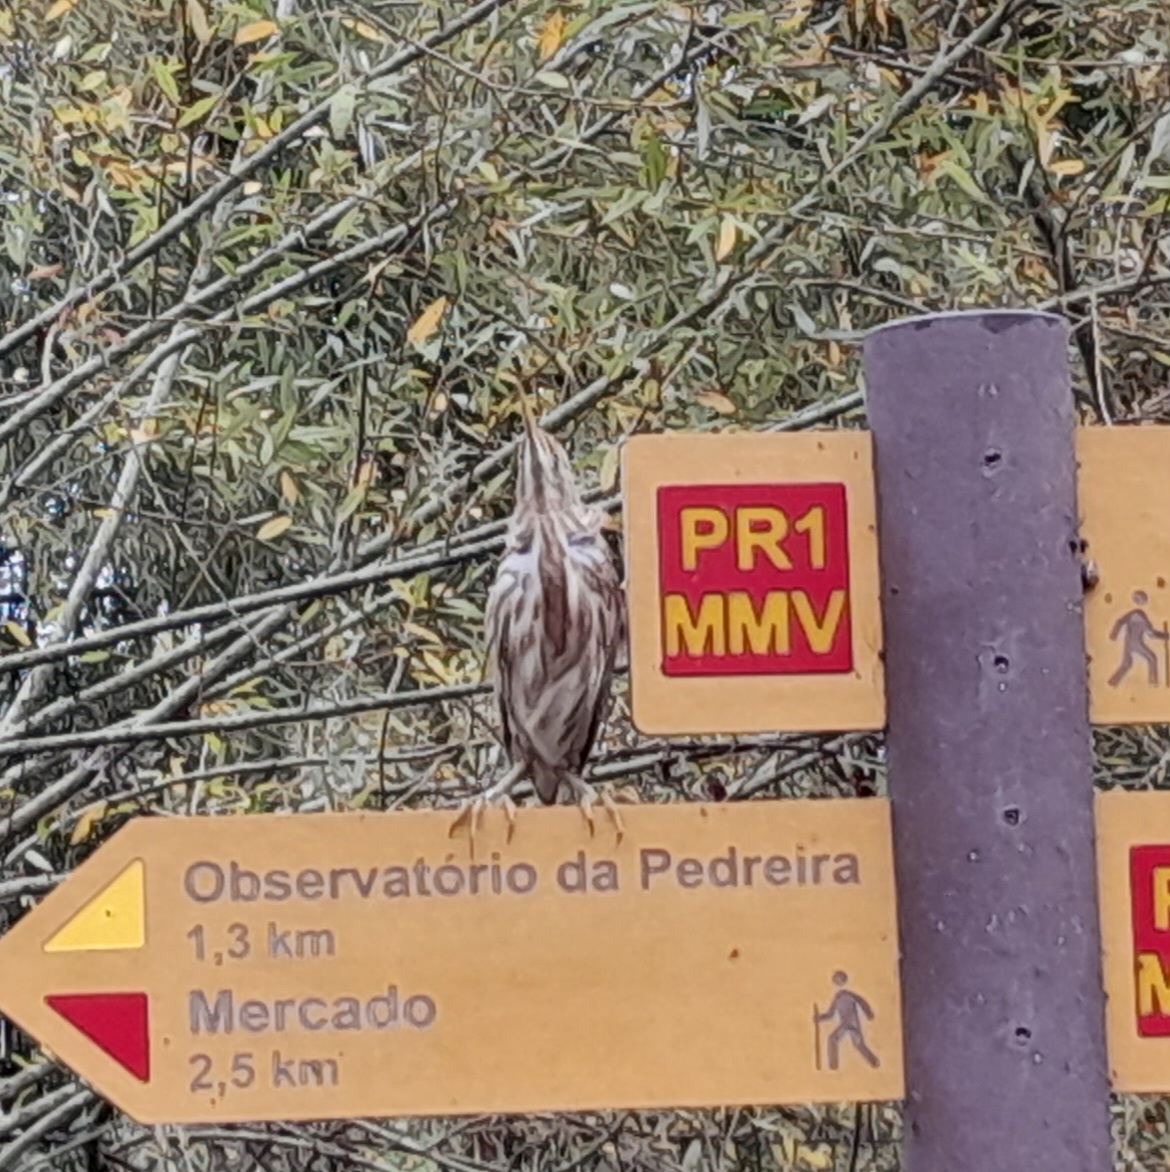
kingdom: Animalia
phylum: Chordata
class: Aves
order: Pelecaniformes
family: Ardeidae
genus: Ixobrychus
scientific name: Ixobrychus minutus
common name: Little bittern
